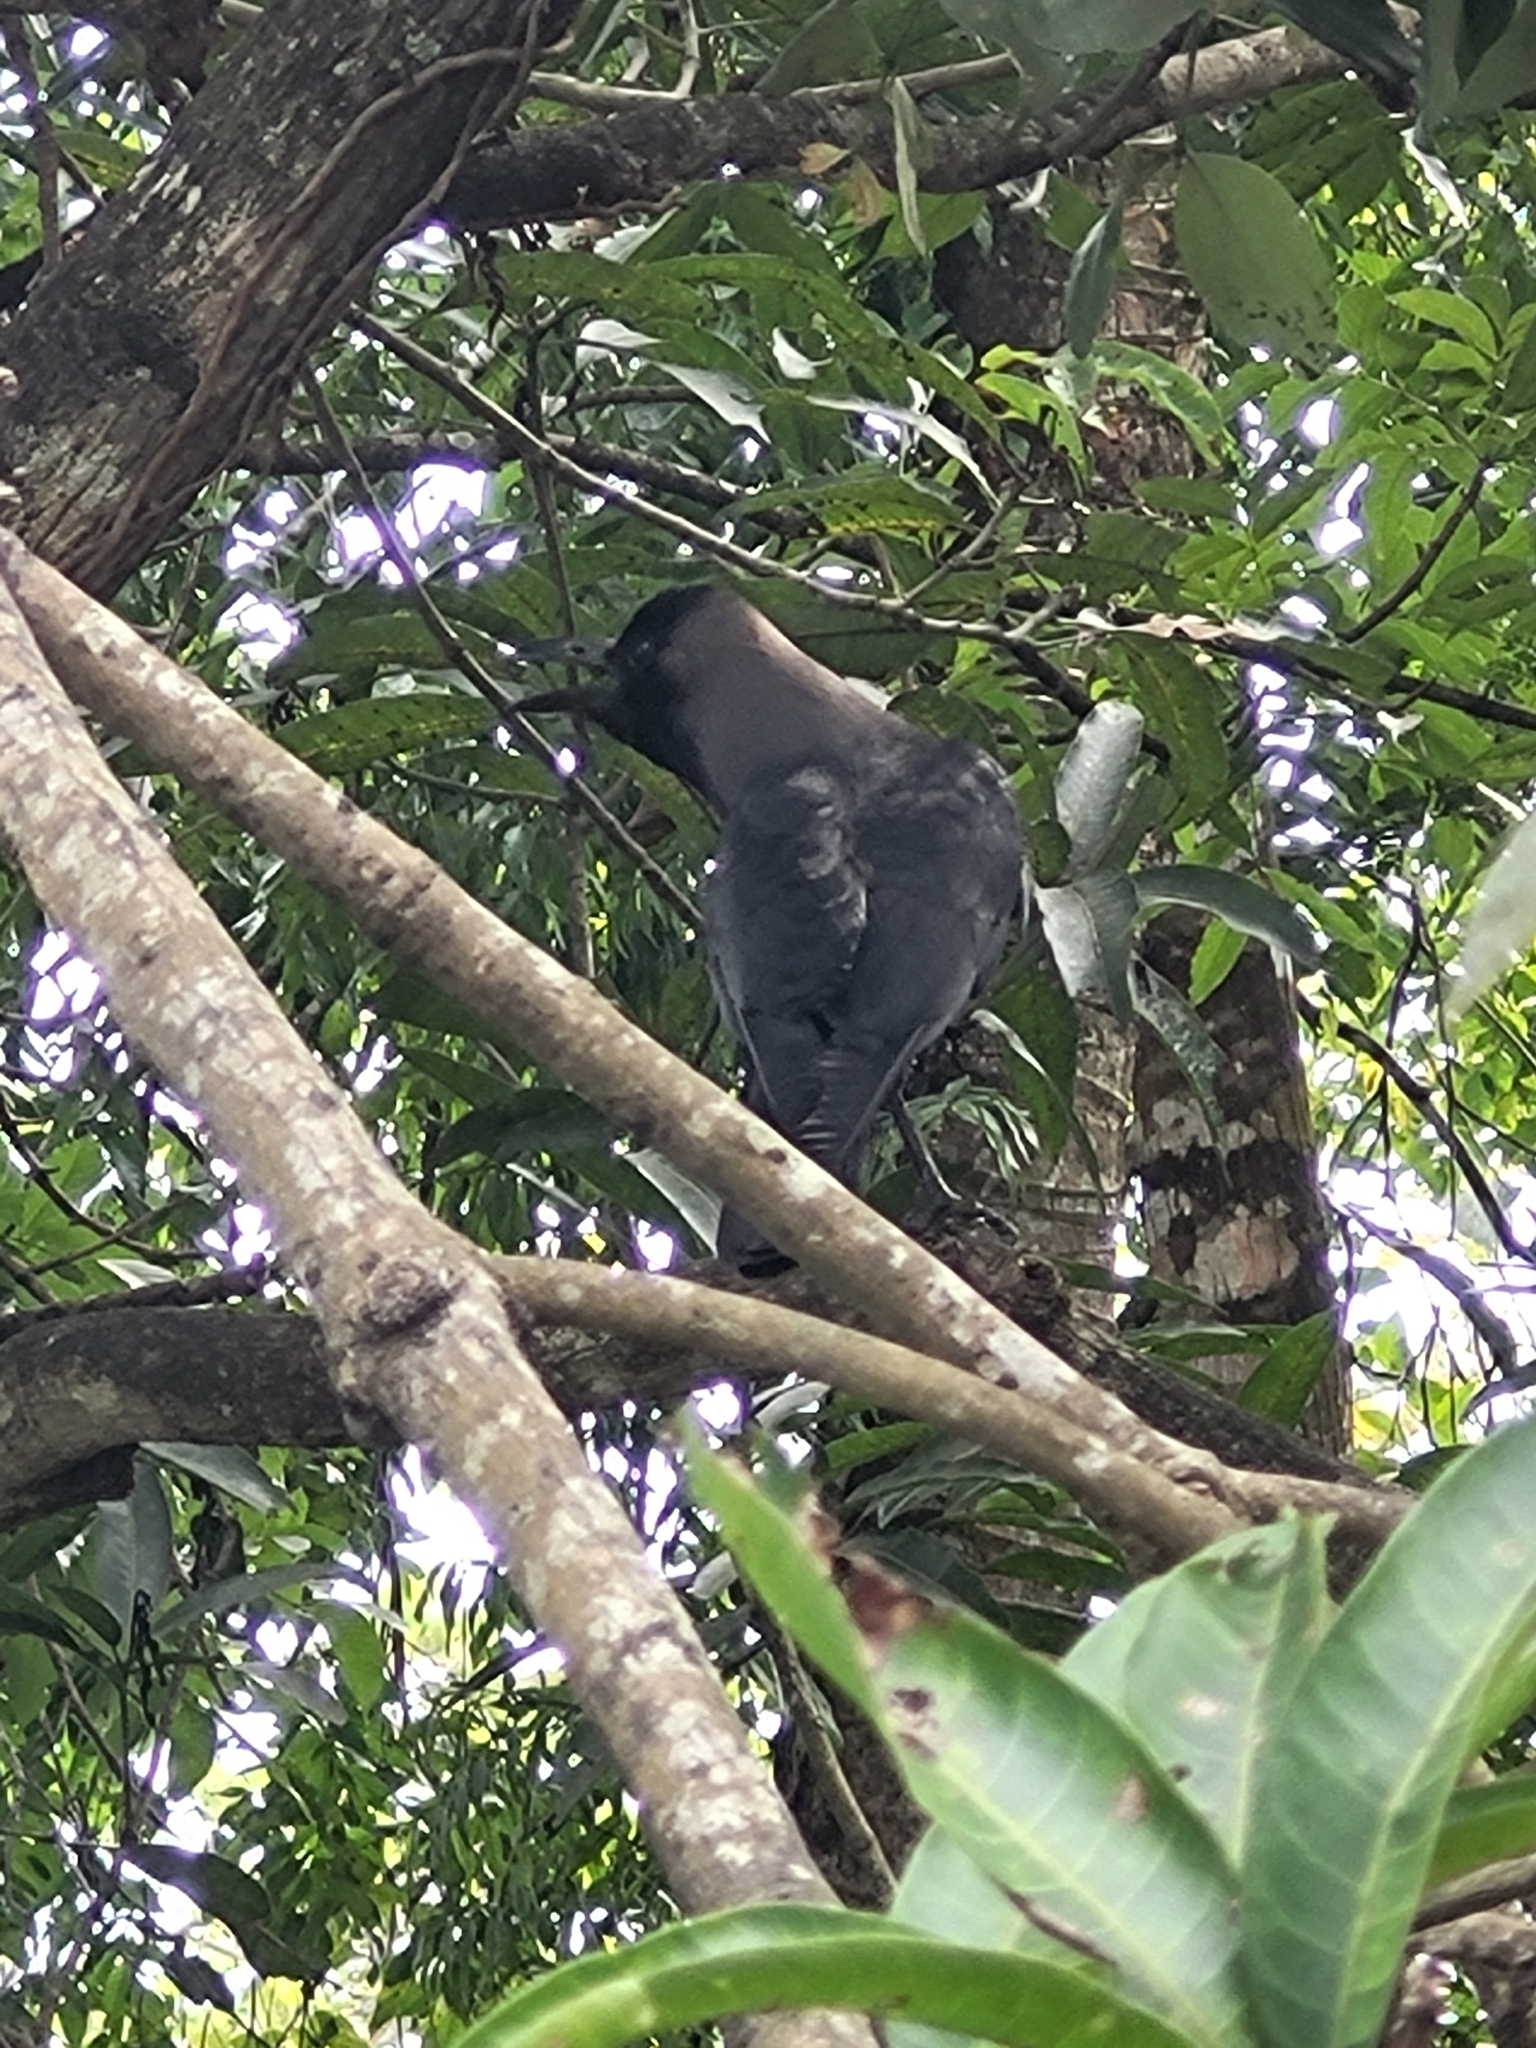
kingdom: Animalia
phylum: Chordata
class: Aves
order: Passeriformes
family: Corvidae
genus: Corvus
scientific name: Corvus splendens
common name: House crow
